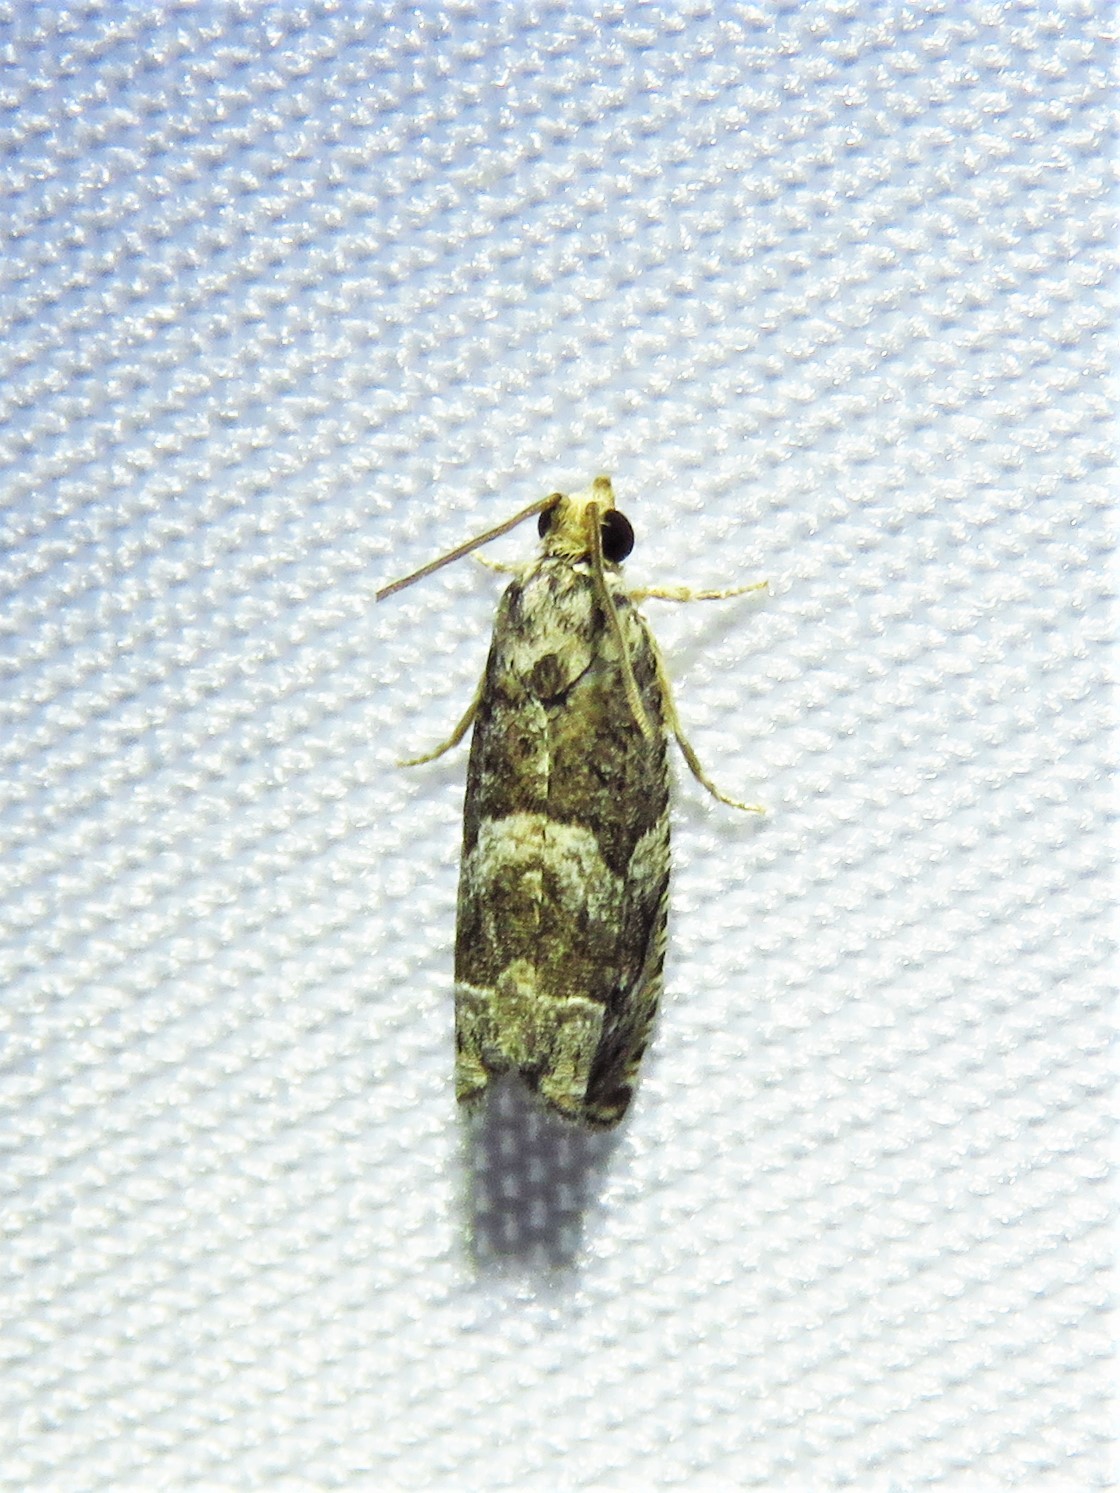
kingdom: Animalia
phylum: Arthropoda
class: Insecta
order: Lepidoptera
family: Tortricidae
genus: Cydia
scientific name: Cydia membrosa
